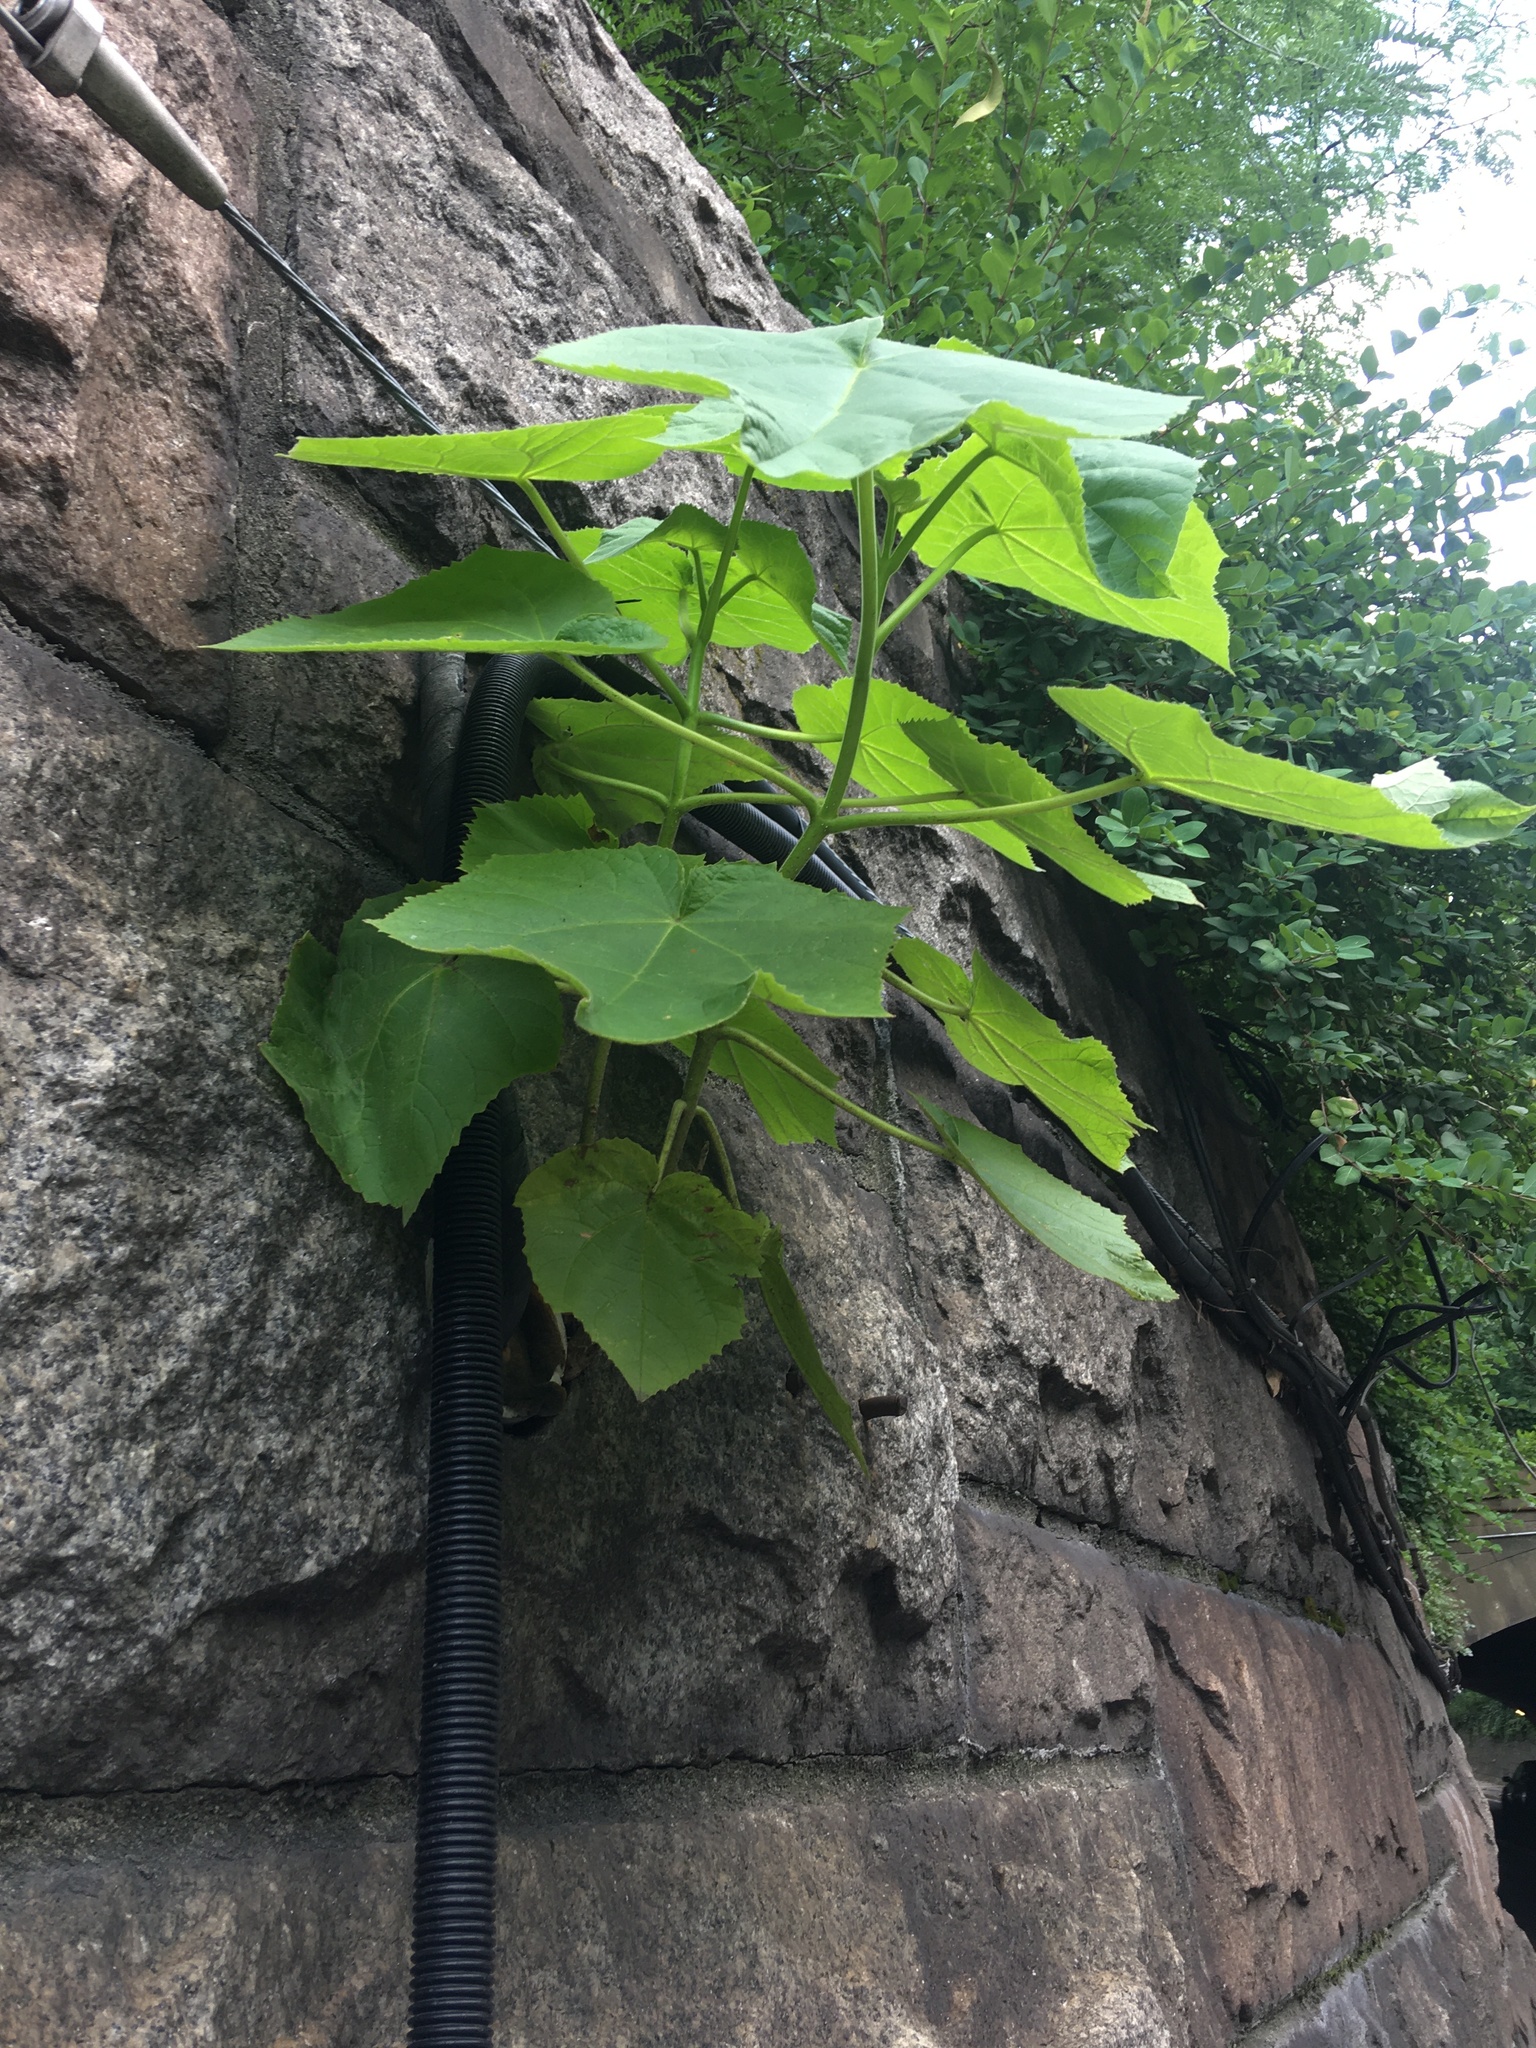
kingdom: Plantae
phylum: Tracheophyta
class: Magnoliopsida
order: Lamiales
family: Paulowniaceae
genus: Paulownia
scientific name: Paulownia tomentosa
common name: Foxglove-tree
